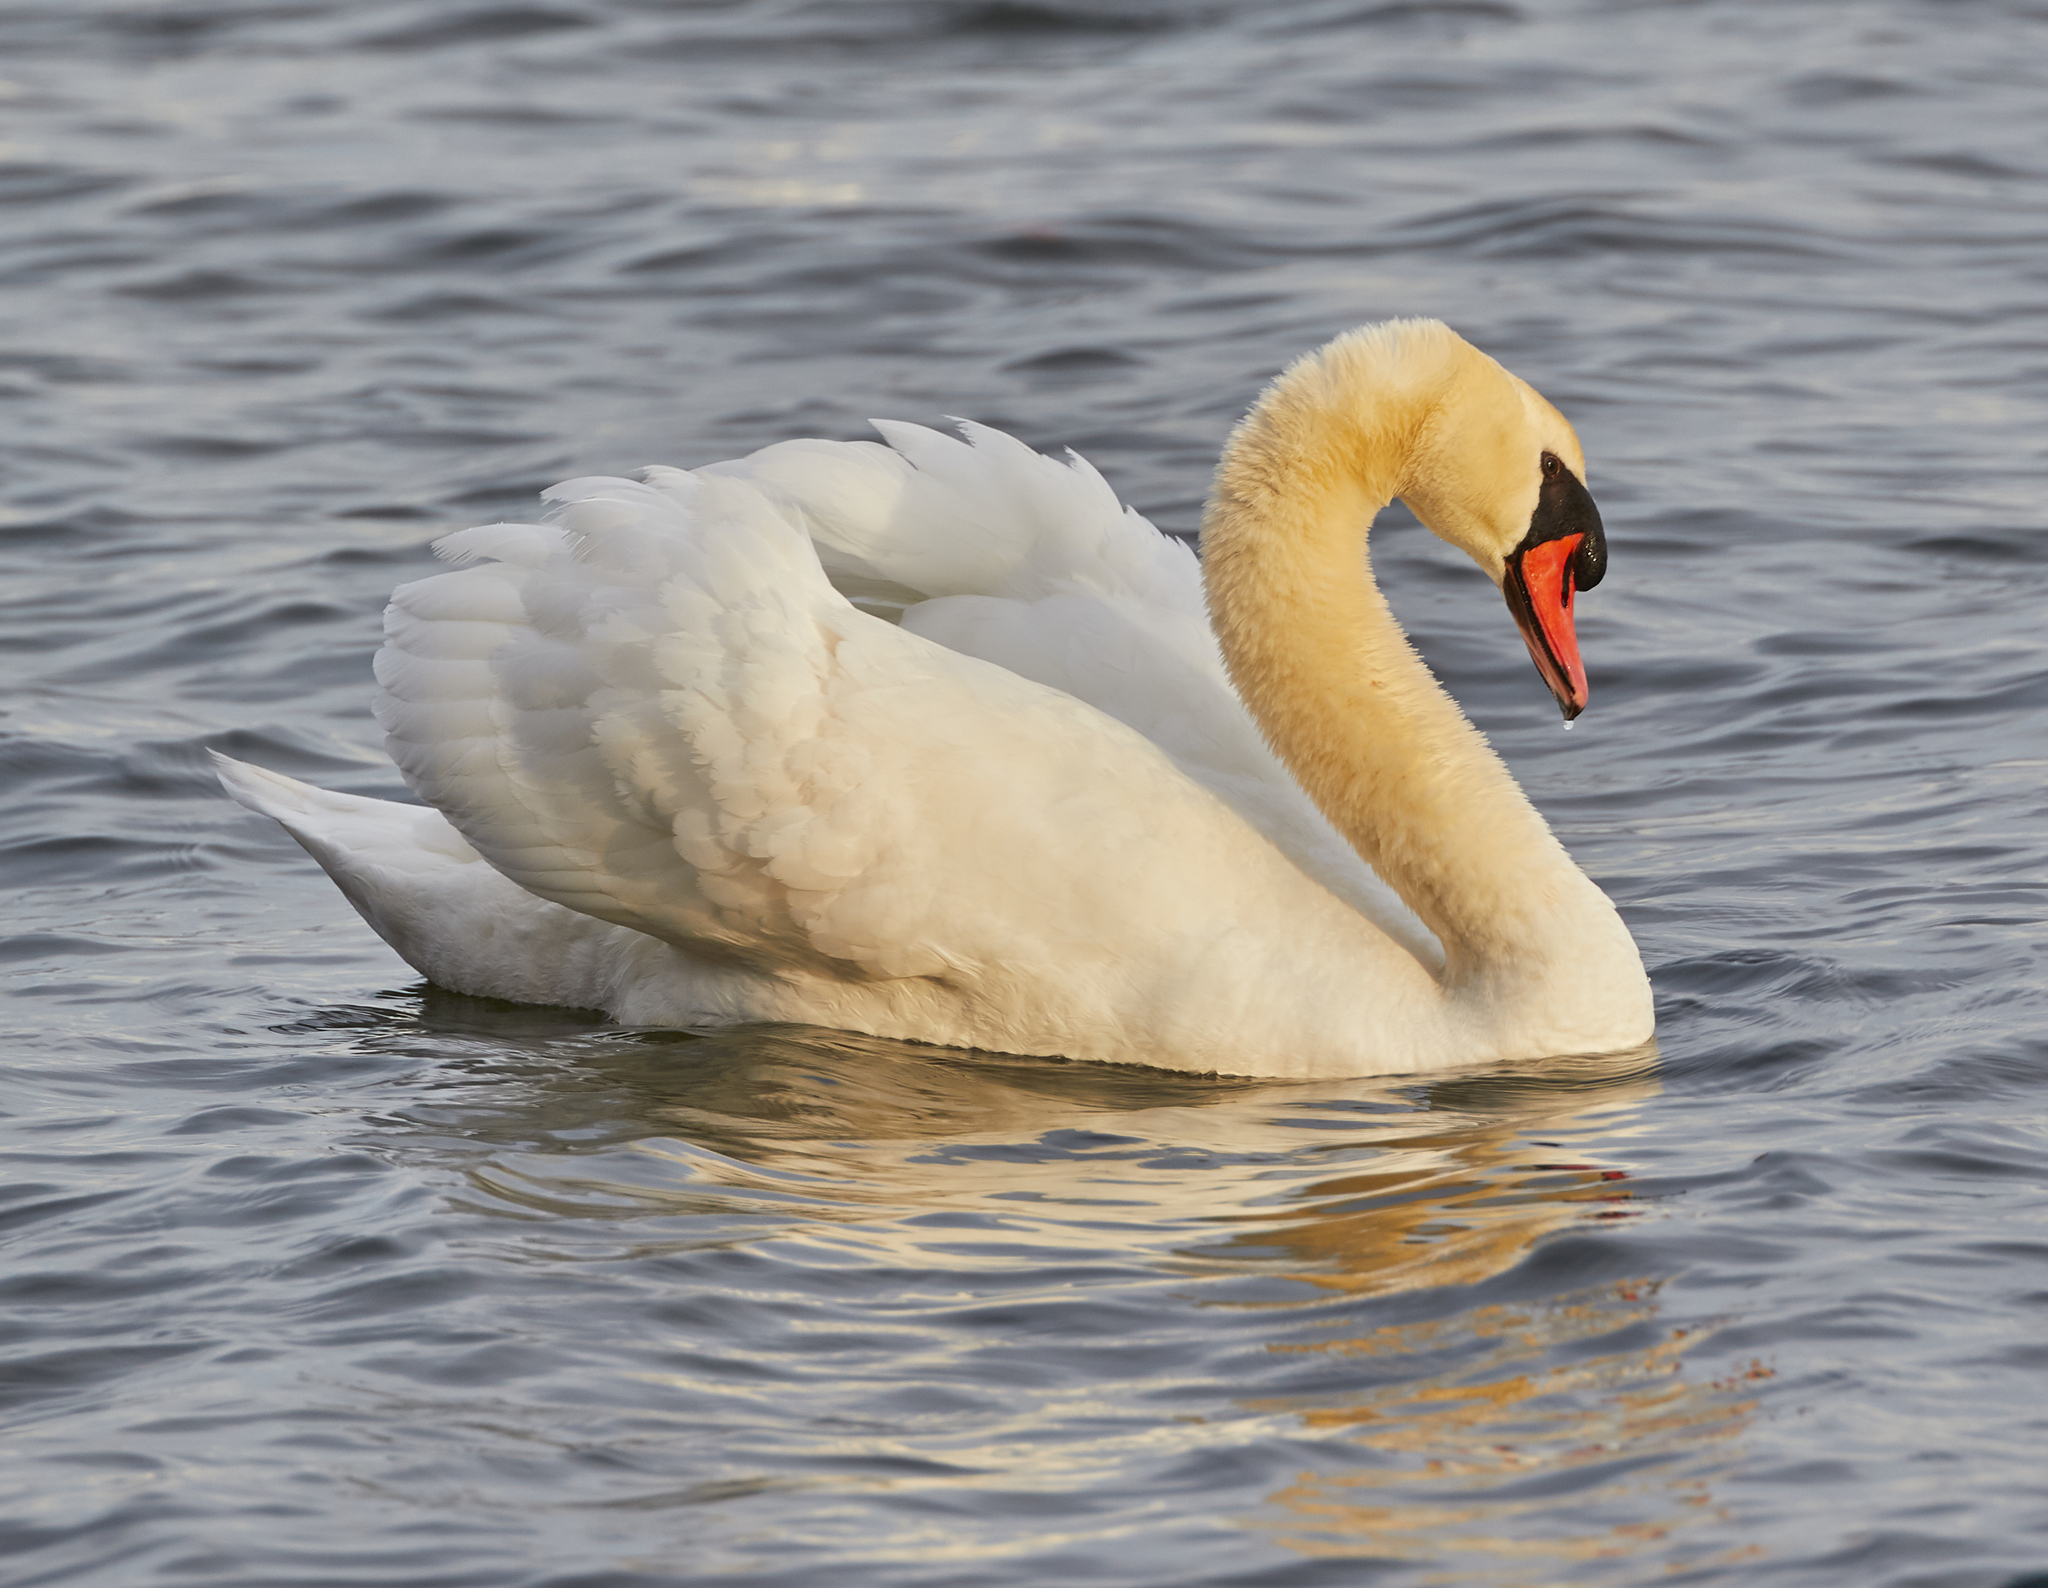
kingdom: Animalia
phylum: Chordata
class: Aves
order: Anseriformes
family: Anatidae
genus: Cygnus
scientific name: Cygnus olor
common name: Mute swan
